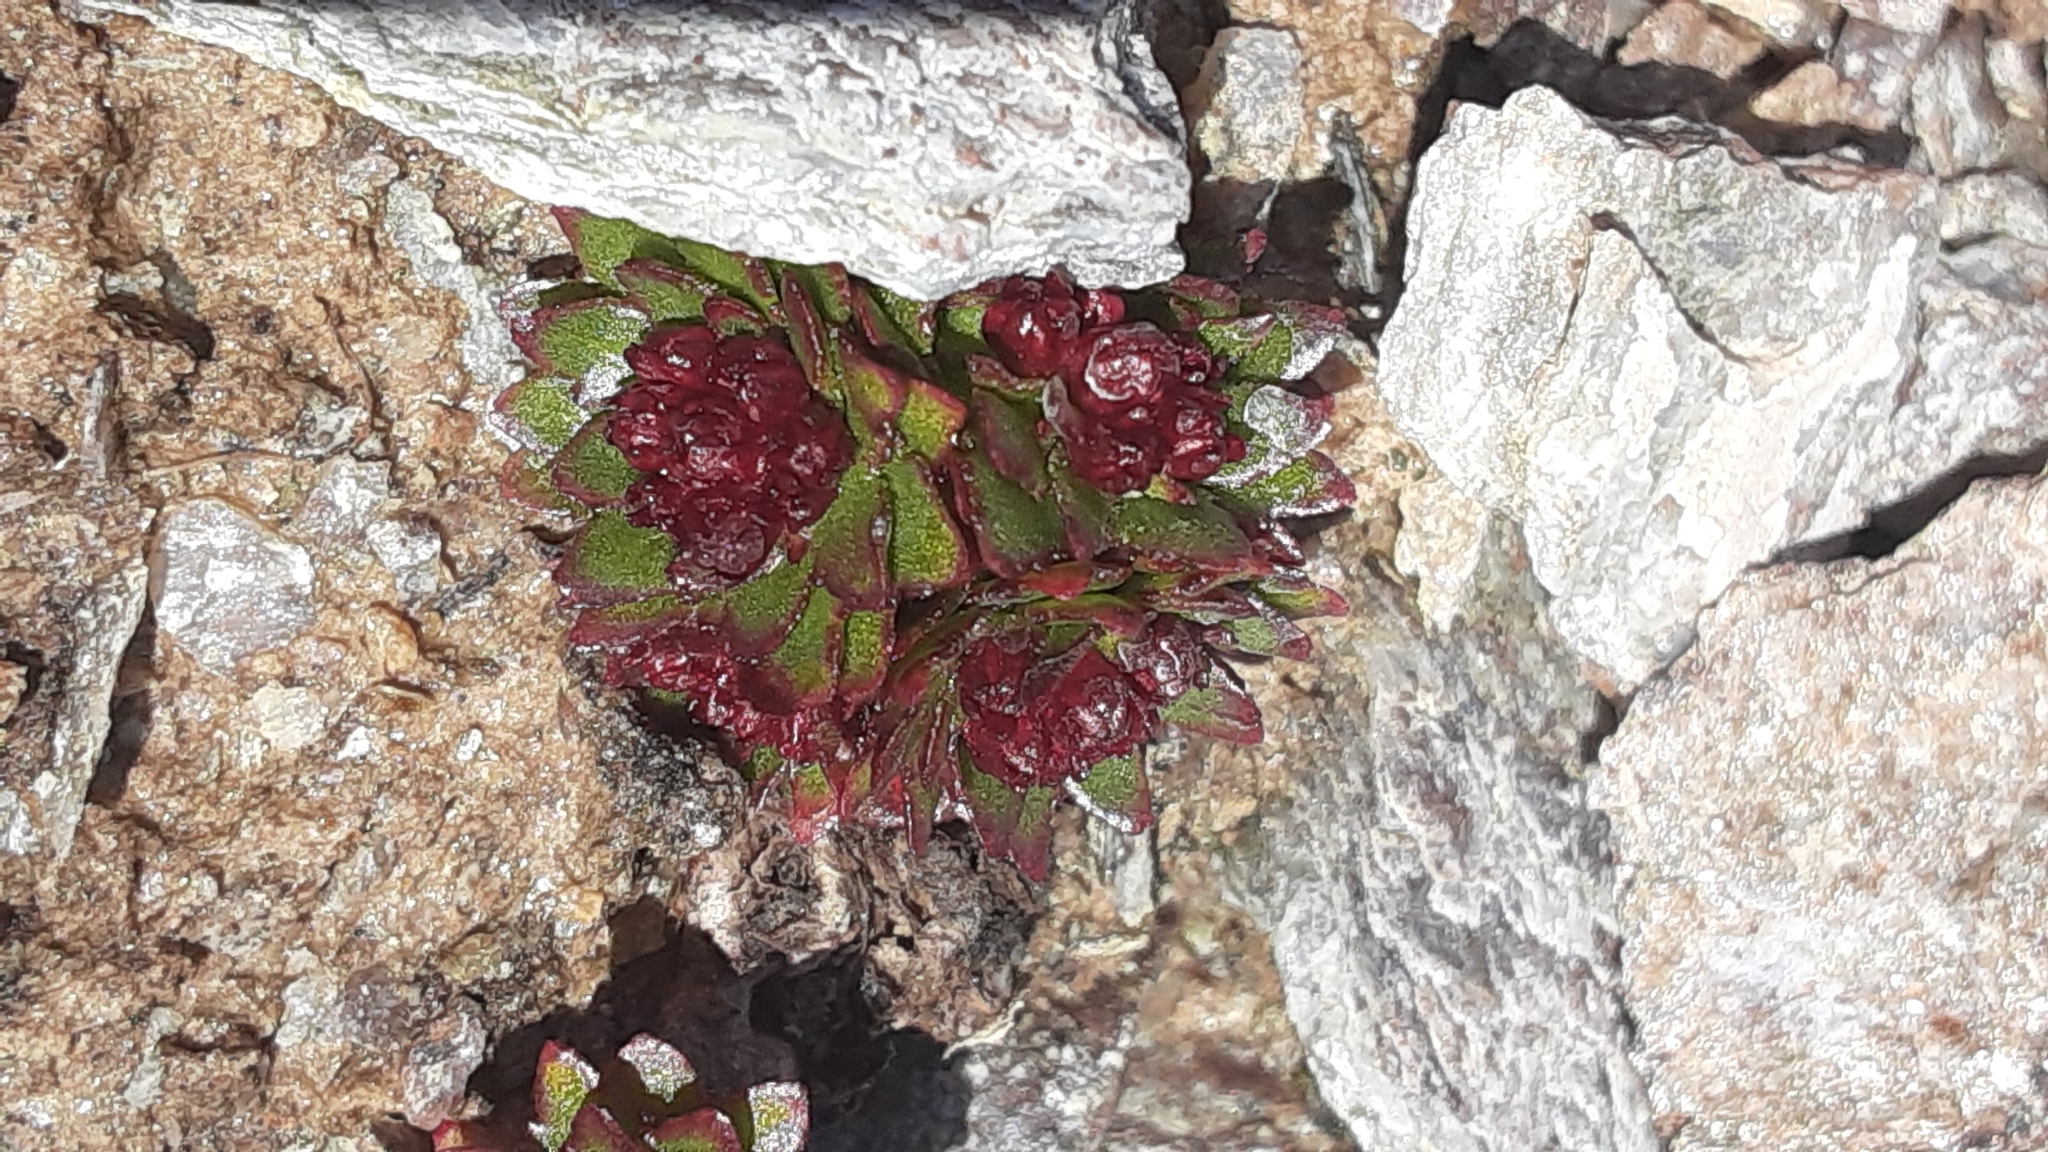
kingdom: Plantae
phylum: Tracheophyta
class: Magnoliopsida
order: Saxifragales
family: Crassulaceae
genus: Rhodiola
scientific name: Rhodiola integrifolia
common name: Western roseroot
